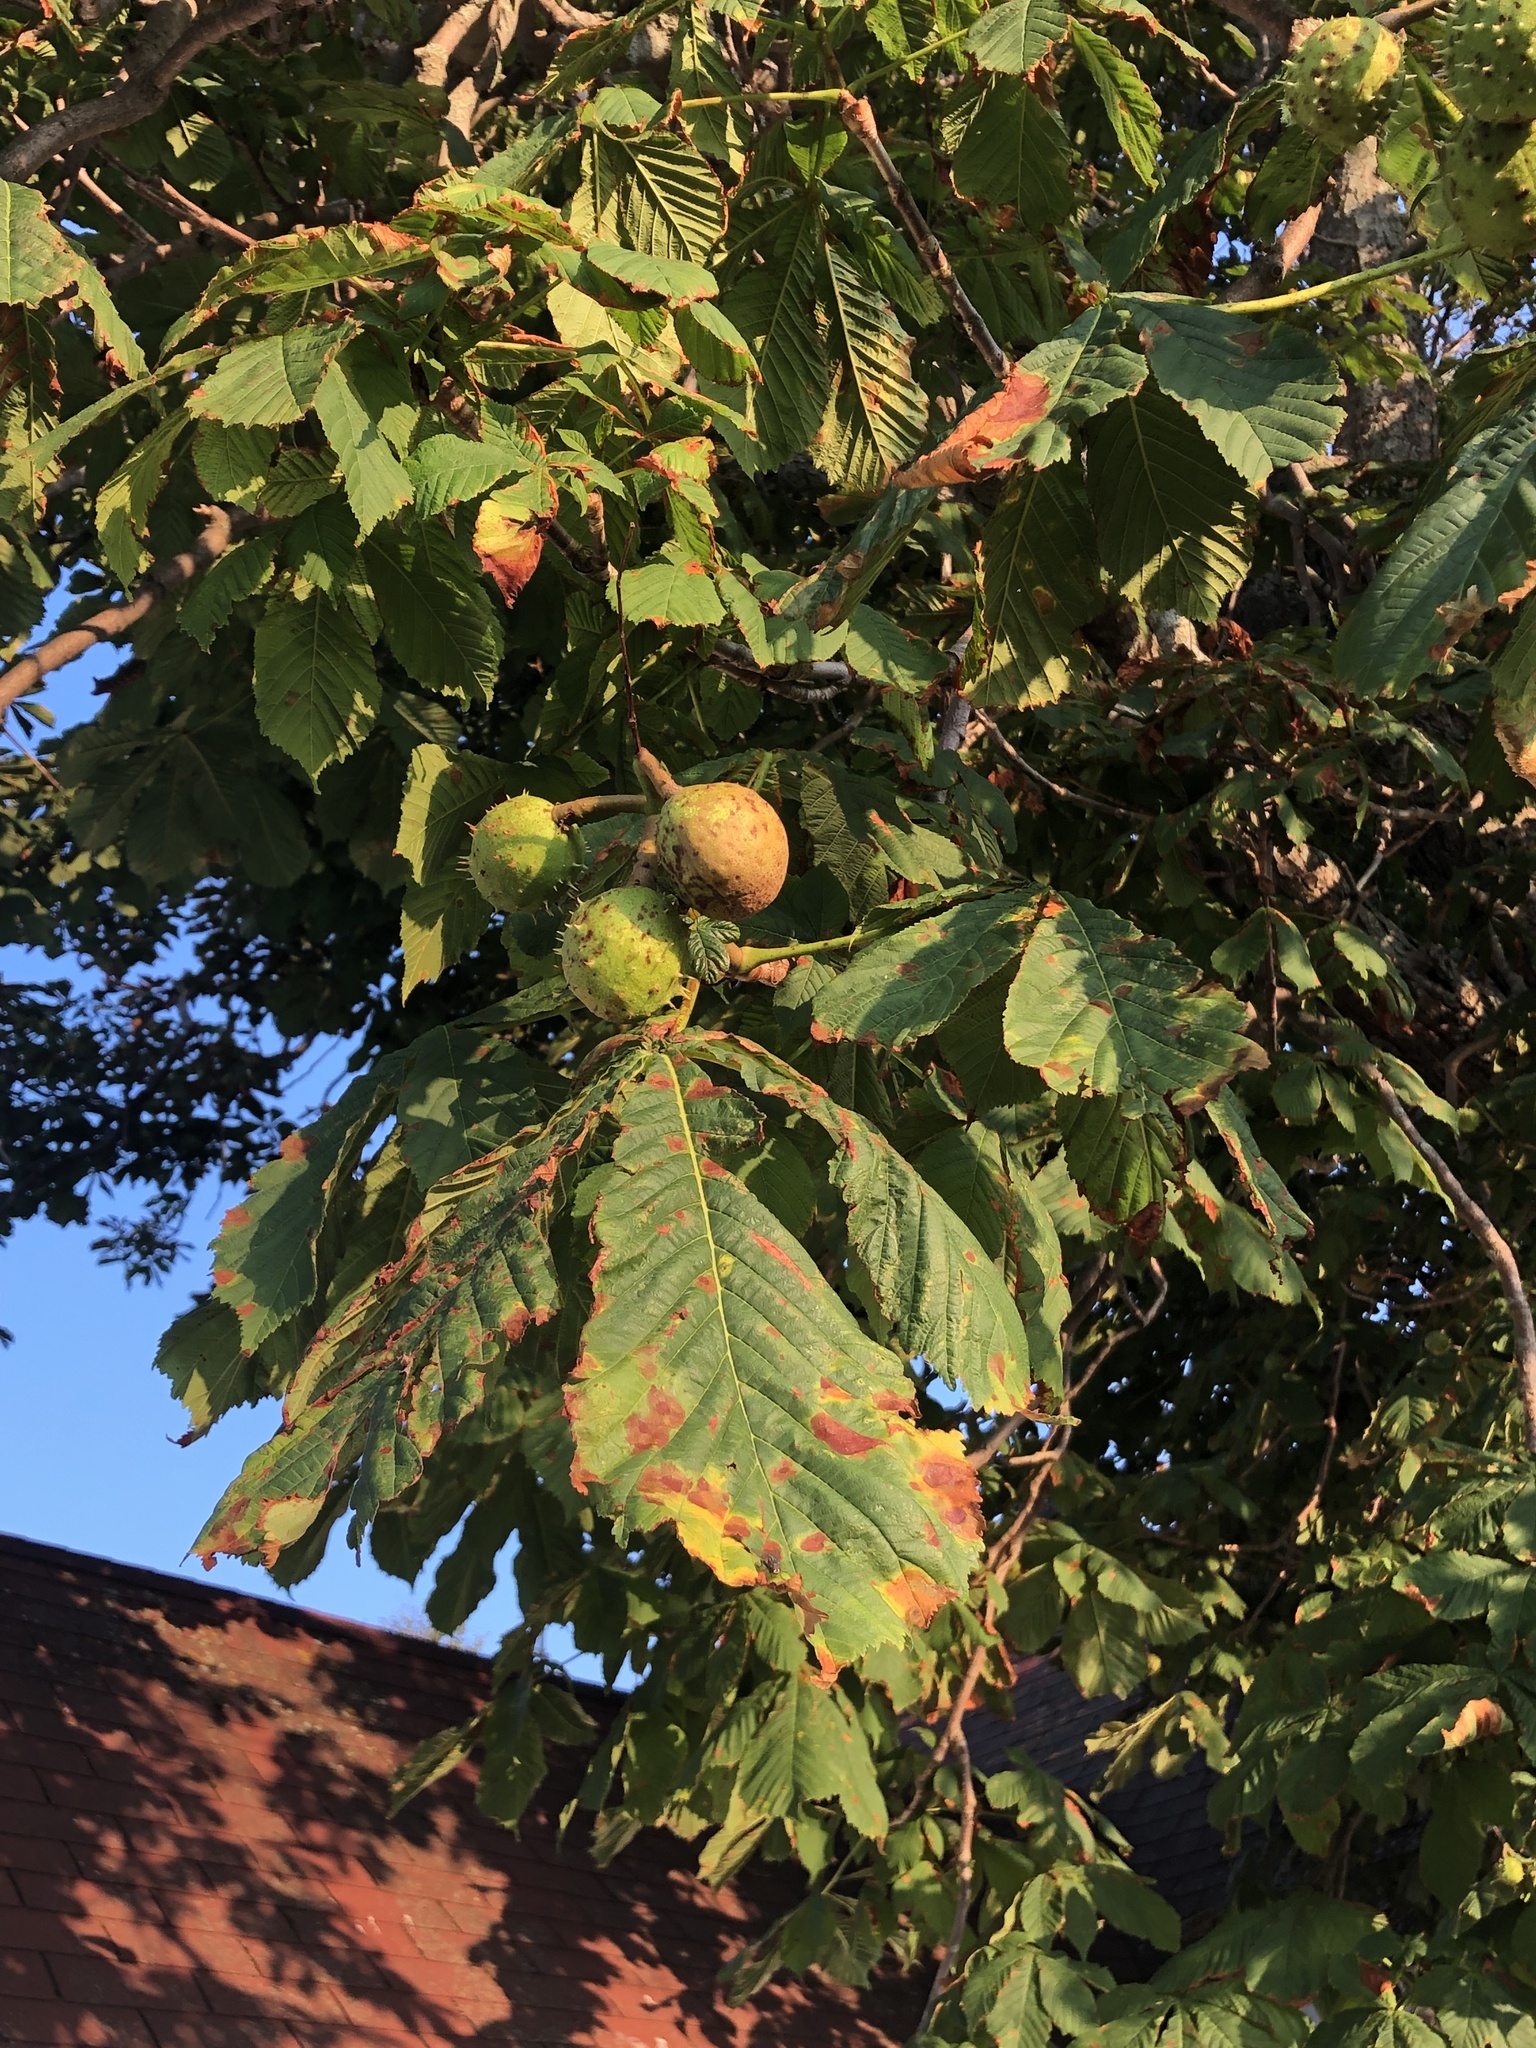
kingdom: Plantae
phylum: Tracheophyta
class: Magnoliopsida
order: Sapindales
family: Sapindaceae
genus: Aesculus
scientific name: Aesculus hippocastanum
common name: Horse-chestnut
